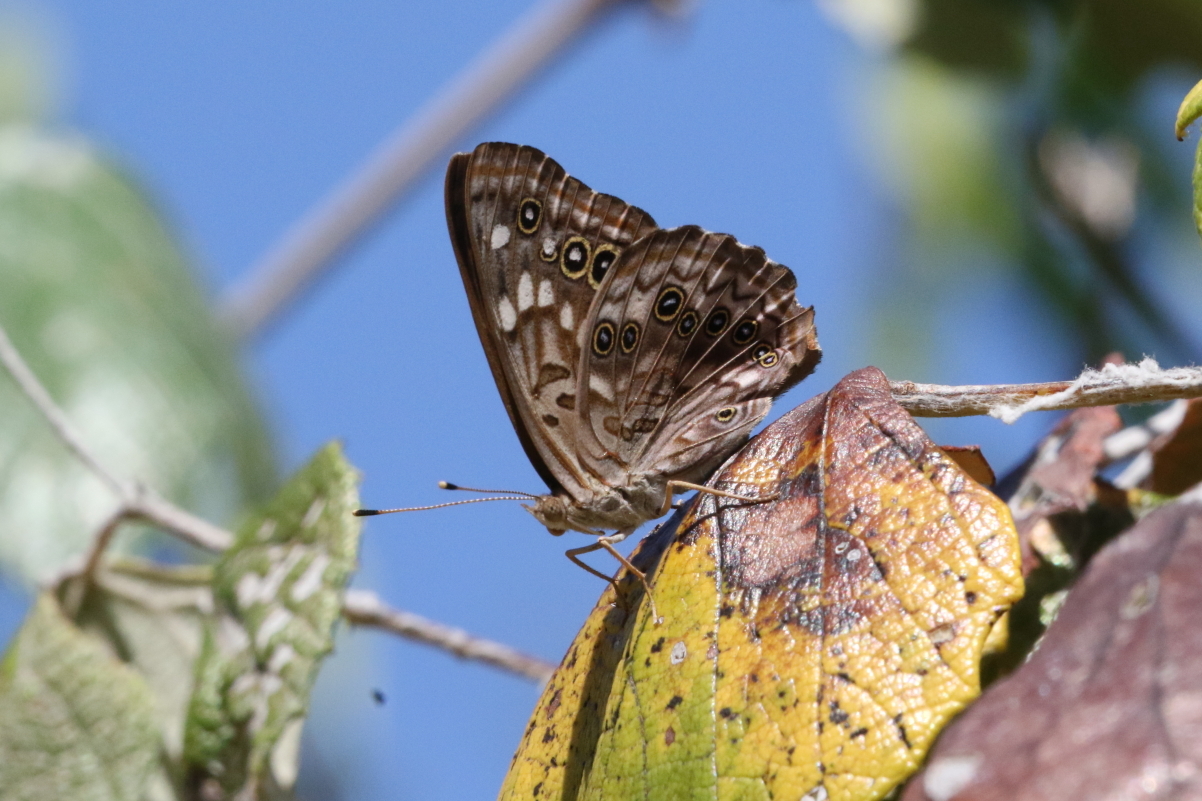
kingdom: Animalia
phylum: Arthropoda
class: Insecta
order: Lepidoptera
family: Nymphalidae
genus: Asterocampa
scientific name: Asterocampa celtis
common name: Hackberry emperor
